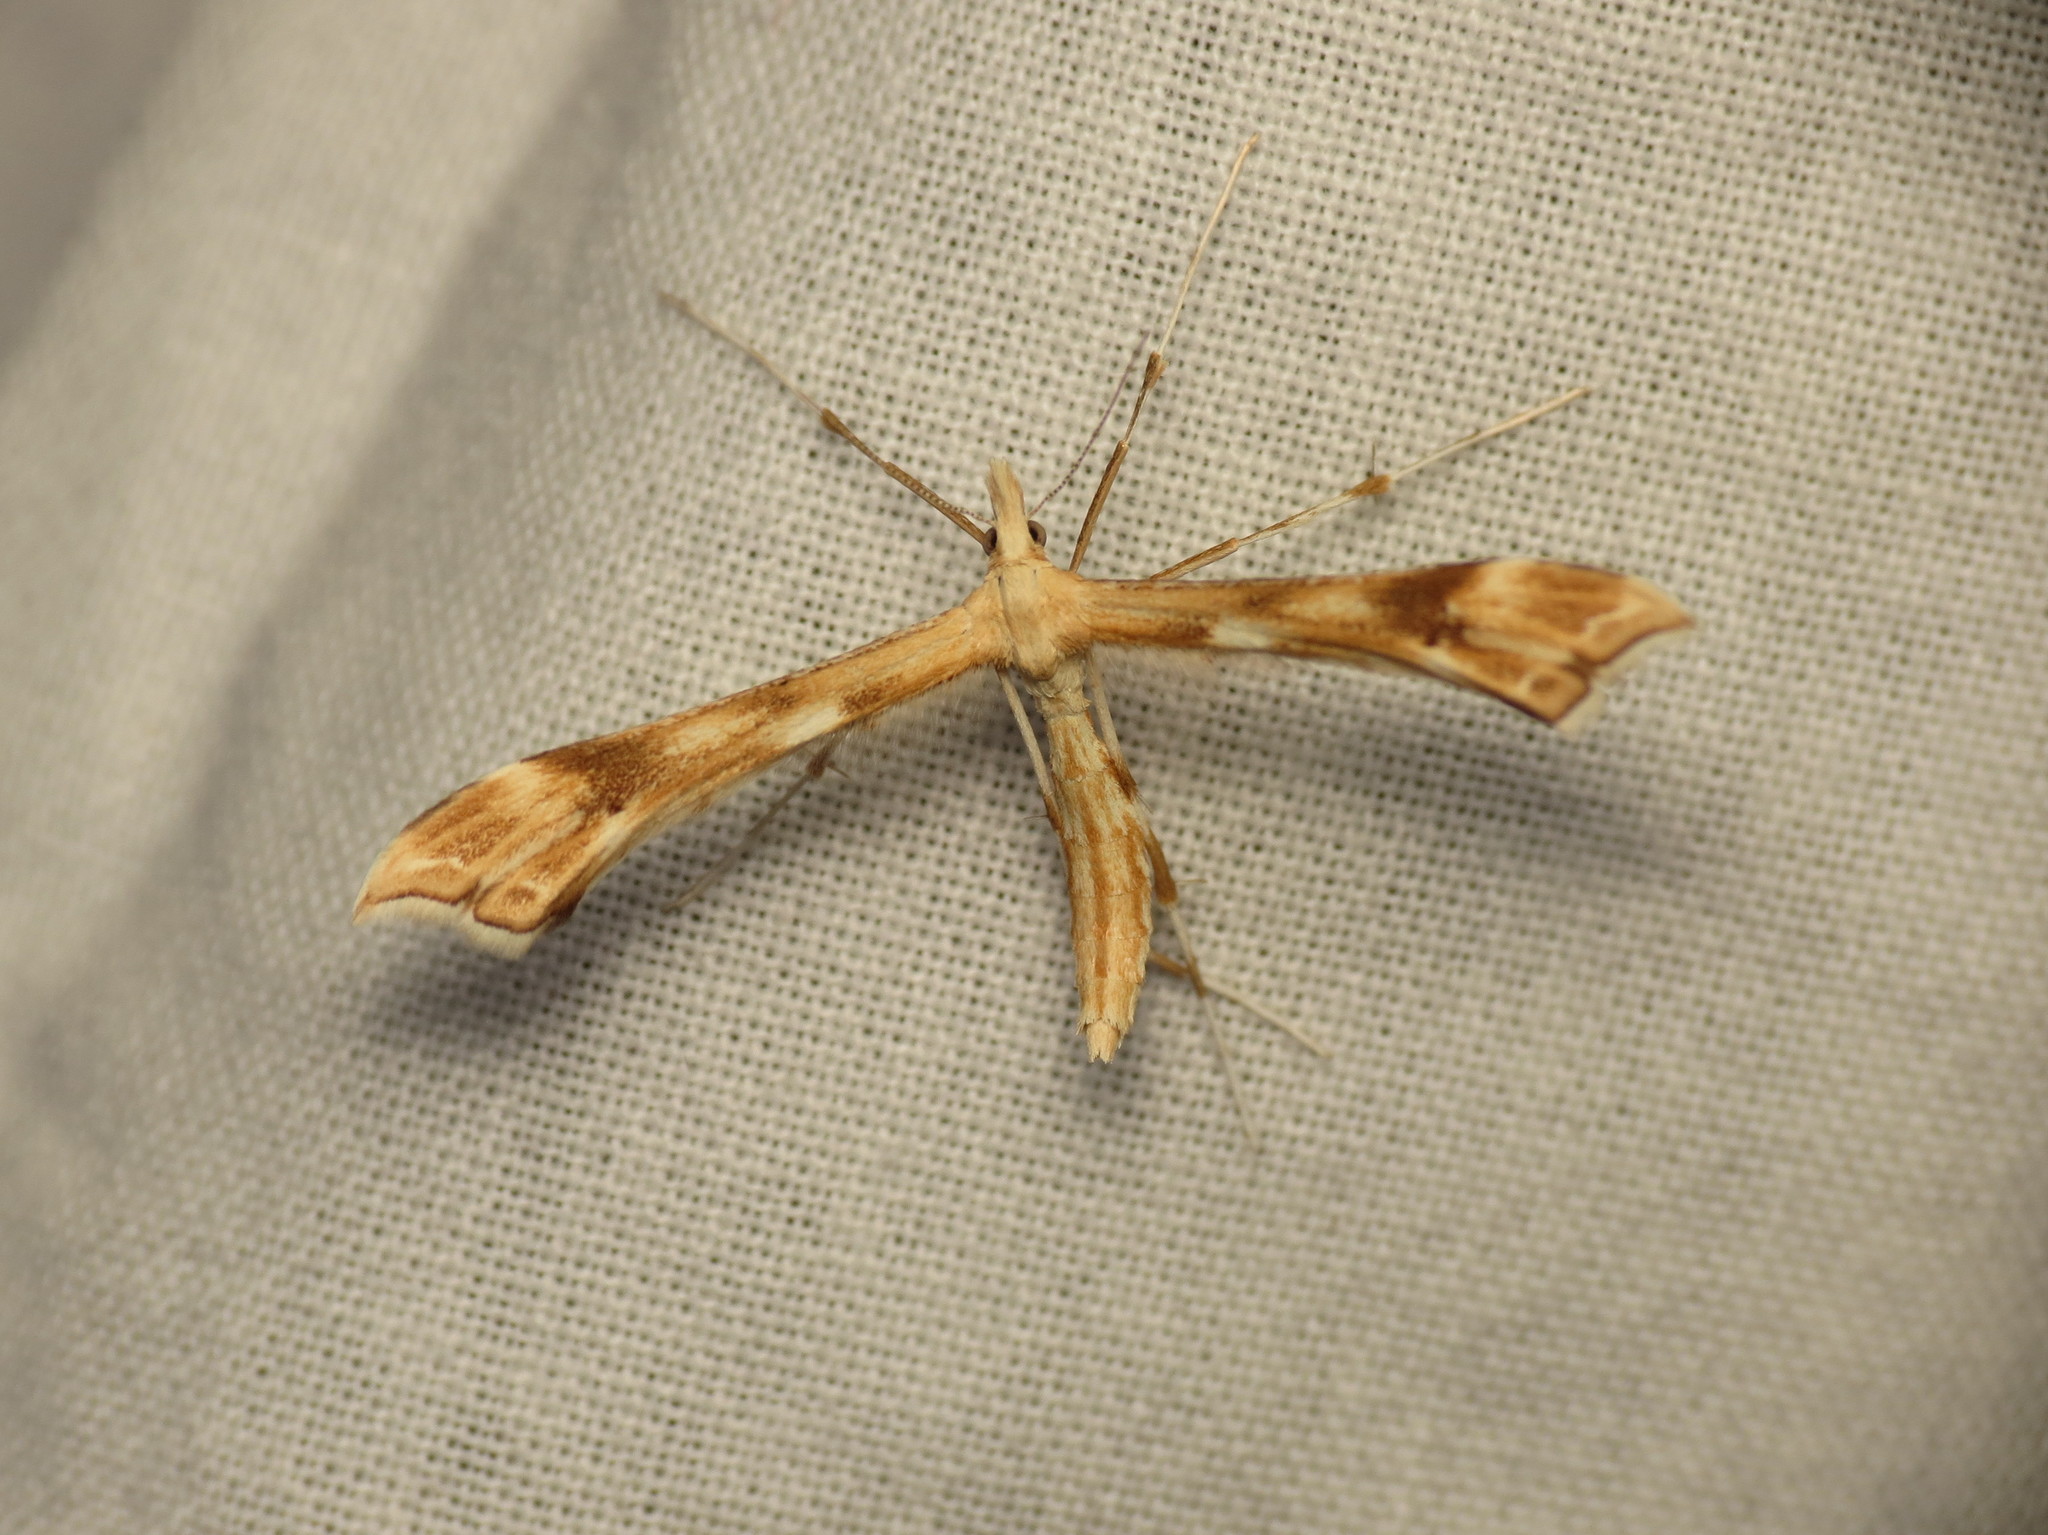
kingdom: Animalia
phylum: Arthropoda
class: Insecta
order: Lepidoptera
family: Pterophoridae
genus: Gillmeria
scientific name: Gillmeria ochrodactyla
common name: Tansy plume
